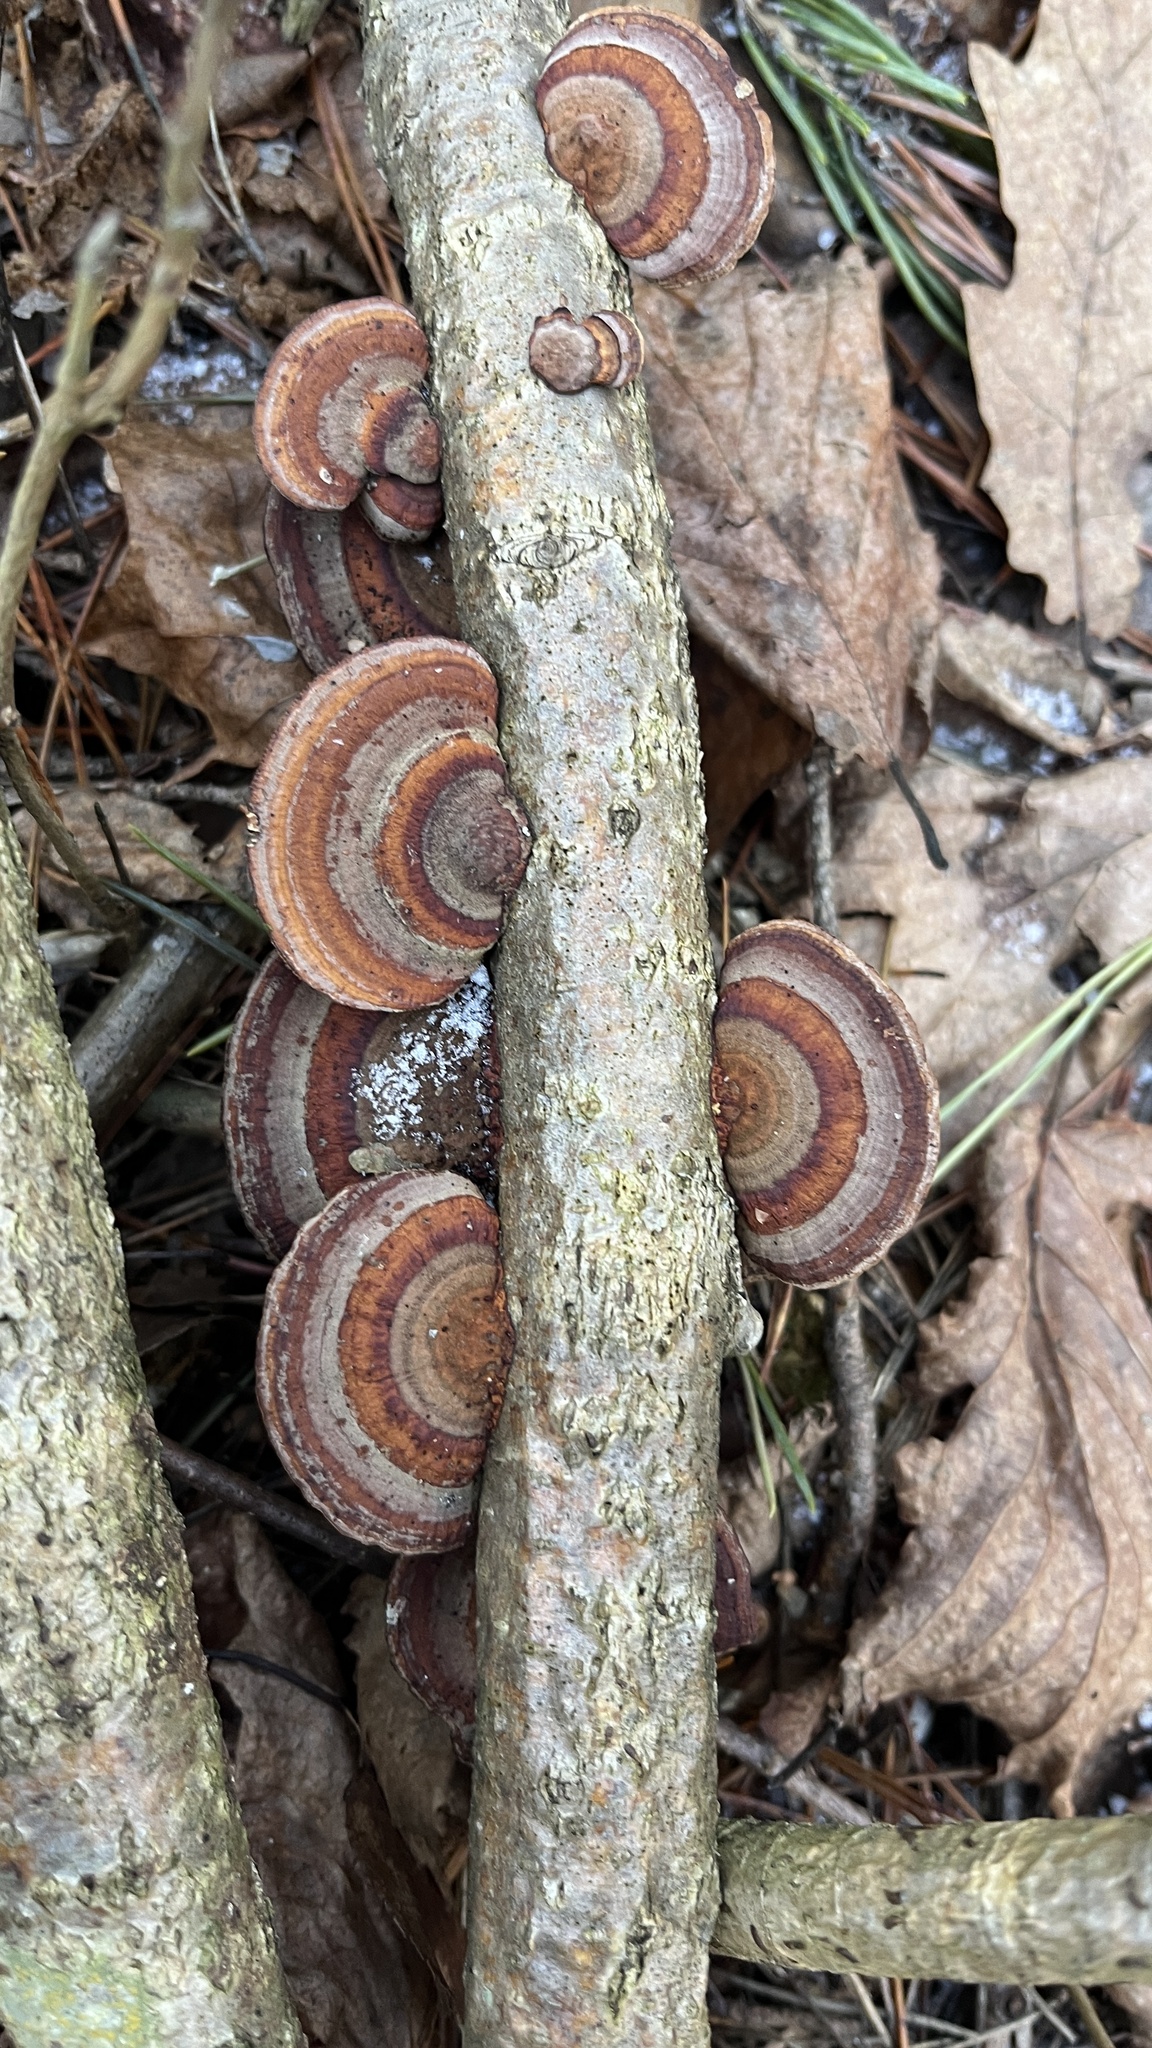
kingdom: Fungi
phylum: Basidiomycota
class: Agaricomycetes
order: Polyporales
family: Polyporaceae
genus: Daedaleopsis
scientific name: Daedaleopsis tricolor
